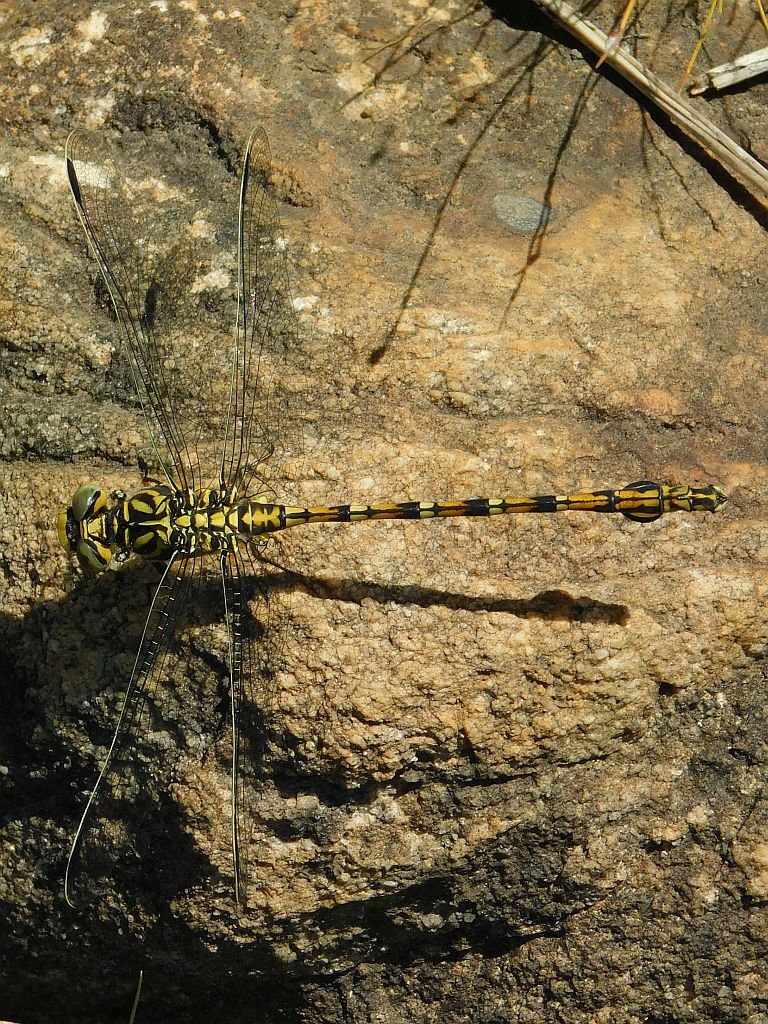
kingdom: Animalia
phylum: Arthropoda
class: Insecta
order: Odonata
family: Gomphidae
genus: Ceratogomphus
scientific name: Ceratogomphus pictus
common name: Common thorntail
